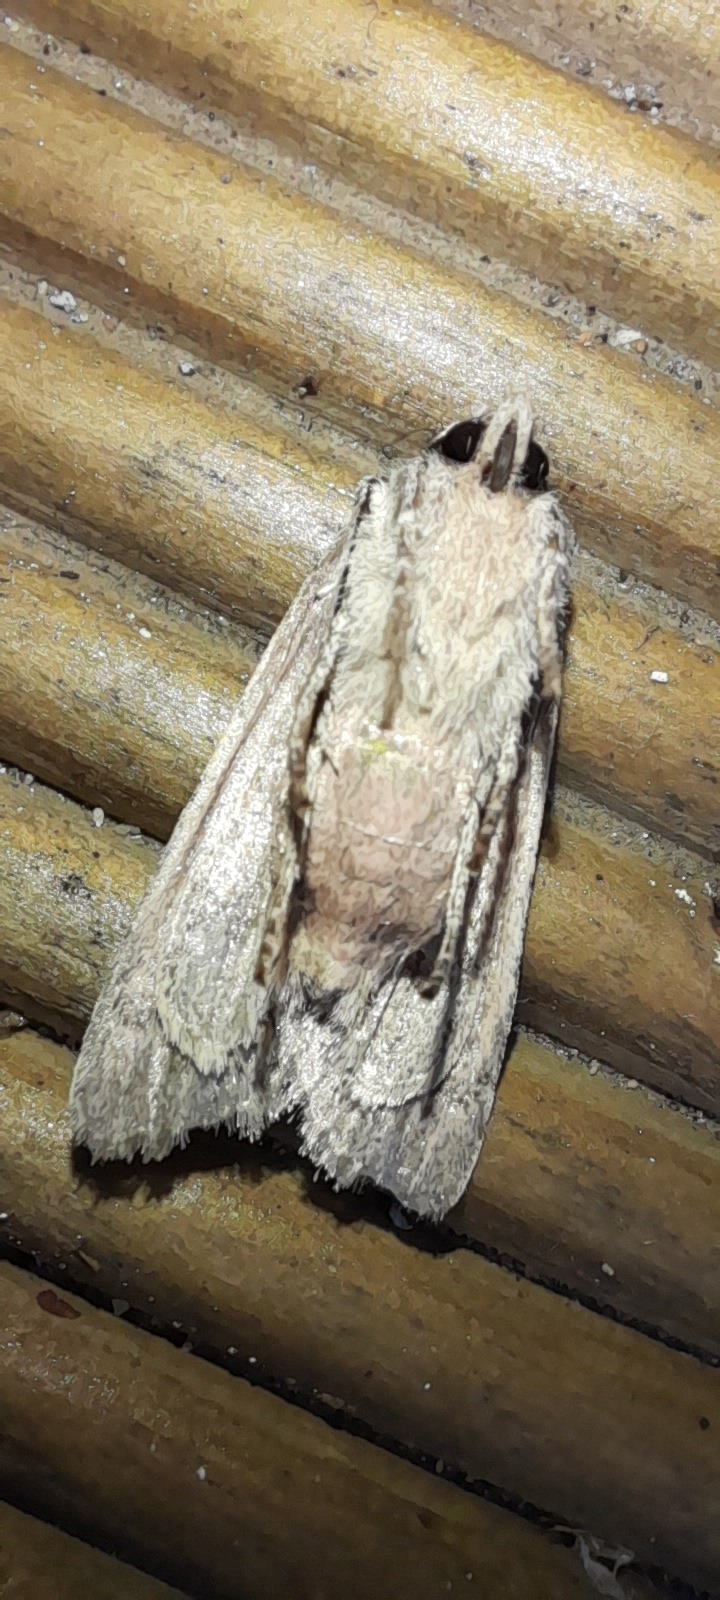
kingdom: Animalia
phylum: Arthropoda
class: Insecta
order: Lepidoptera
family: Noctuidae
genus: Lithophane
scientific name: Lithophane leautieri
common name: Blair's shoulder-knot
